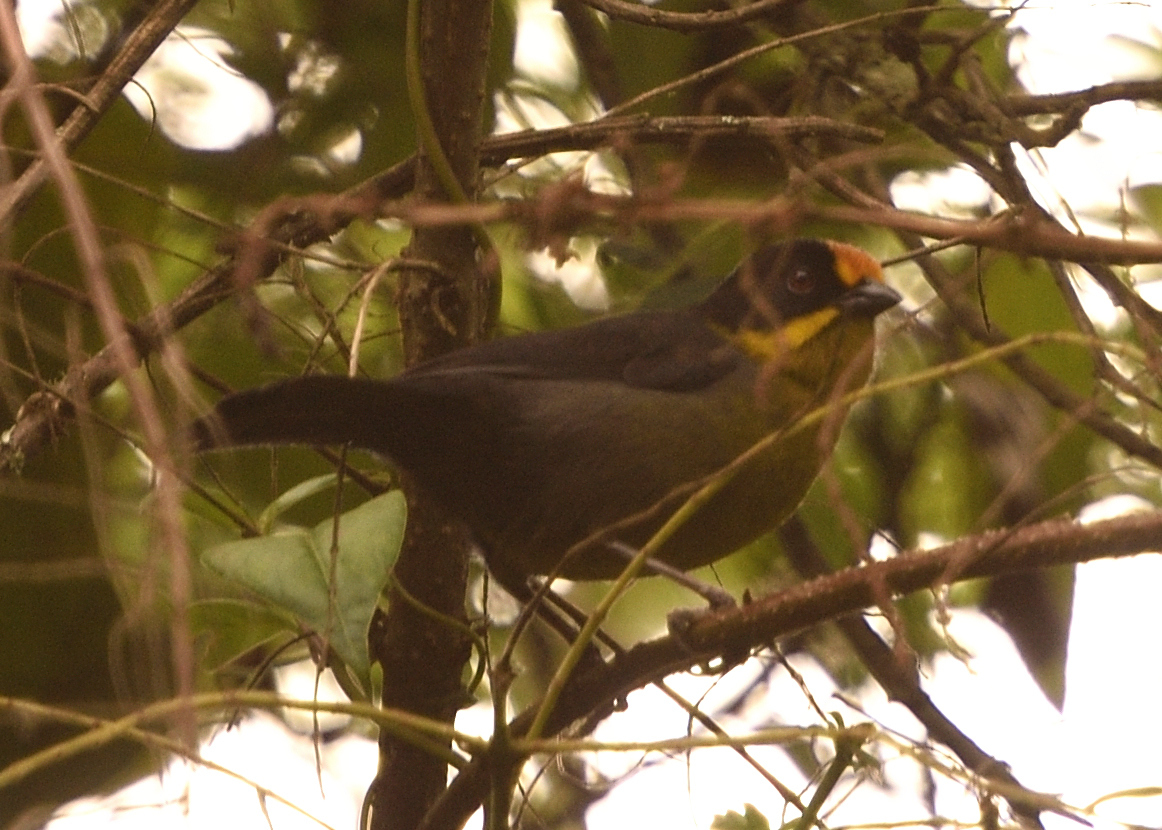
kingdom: Animalia
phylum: Chordata
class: Aves
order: Passeriformes
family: Passerellidae
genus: Atlapetes
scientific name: Atlapetes pallidinucha
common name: Pale-naped brushfinch
